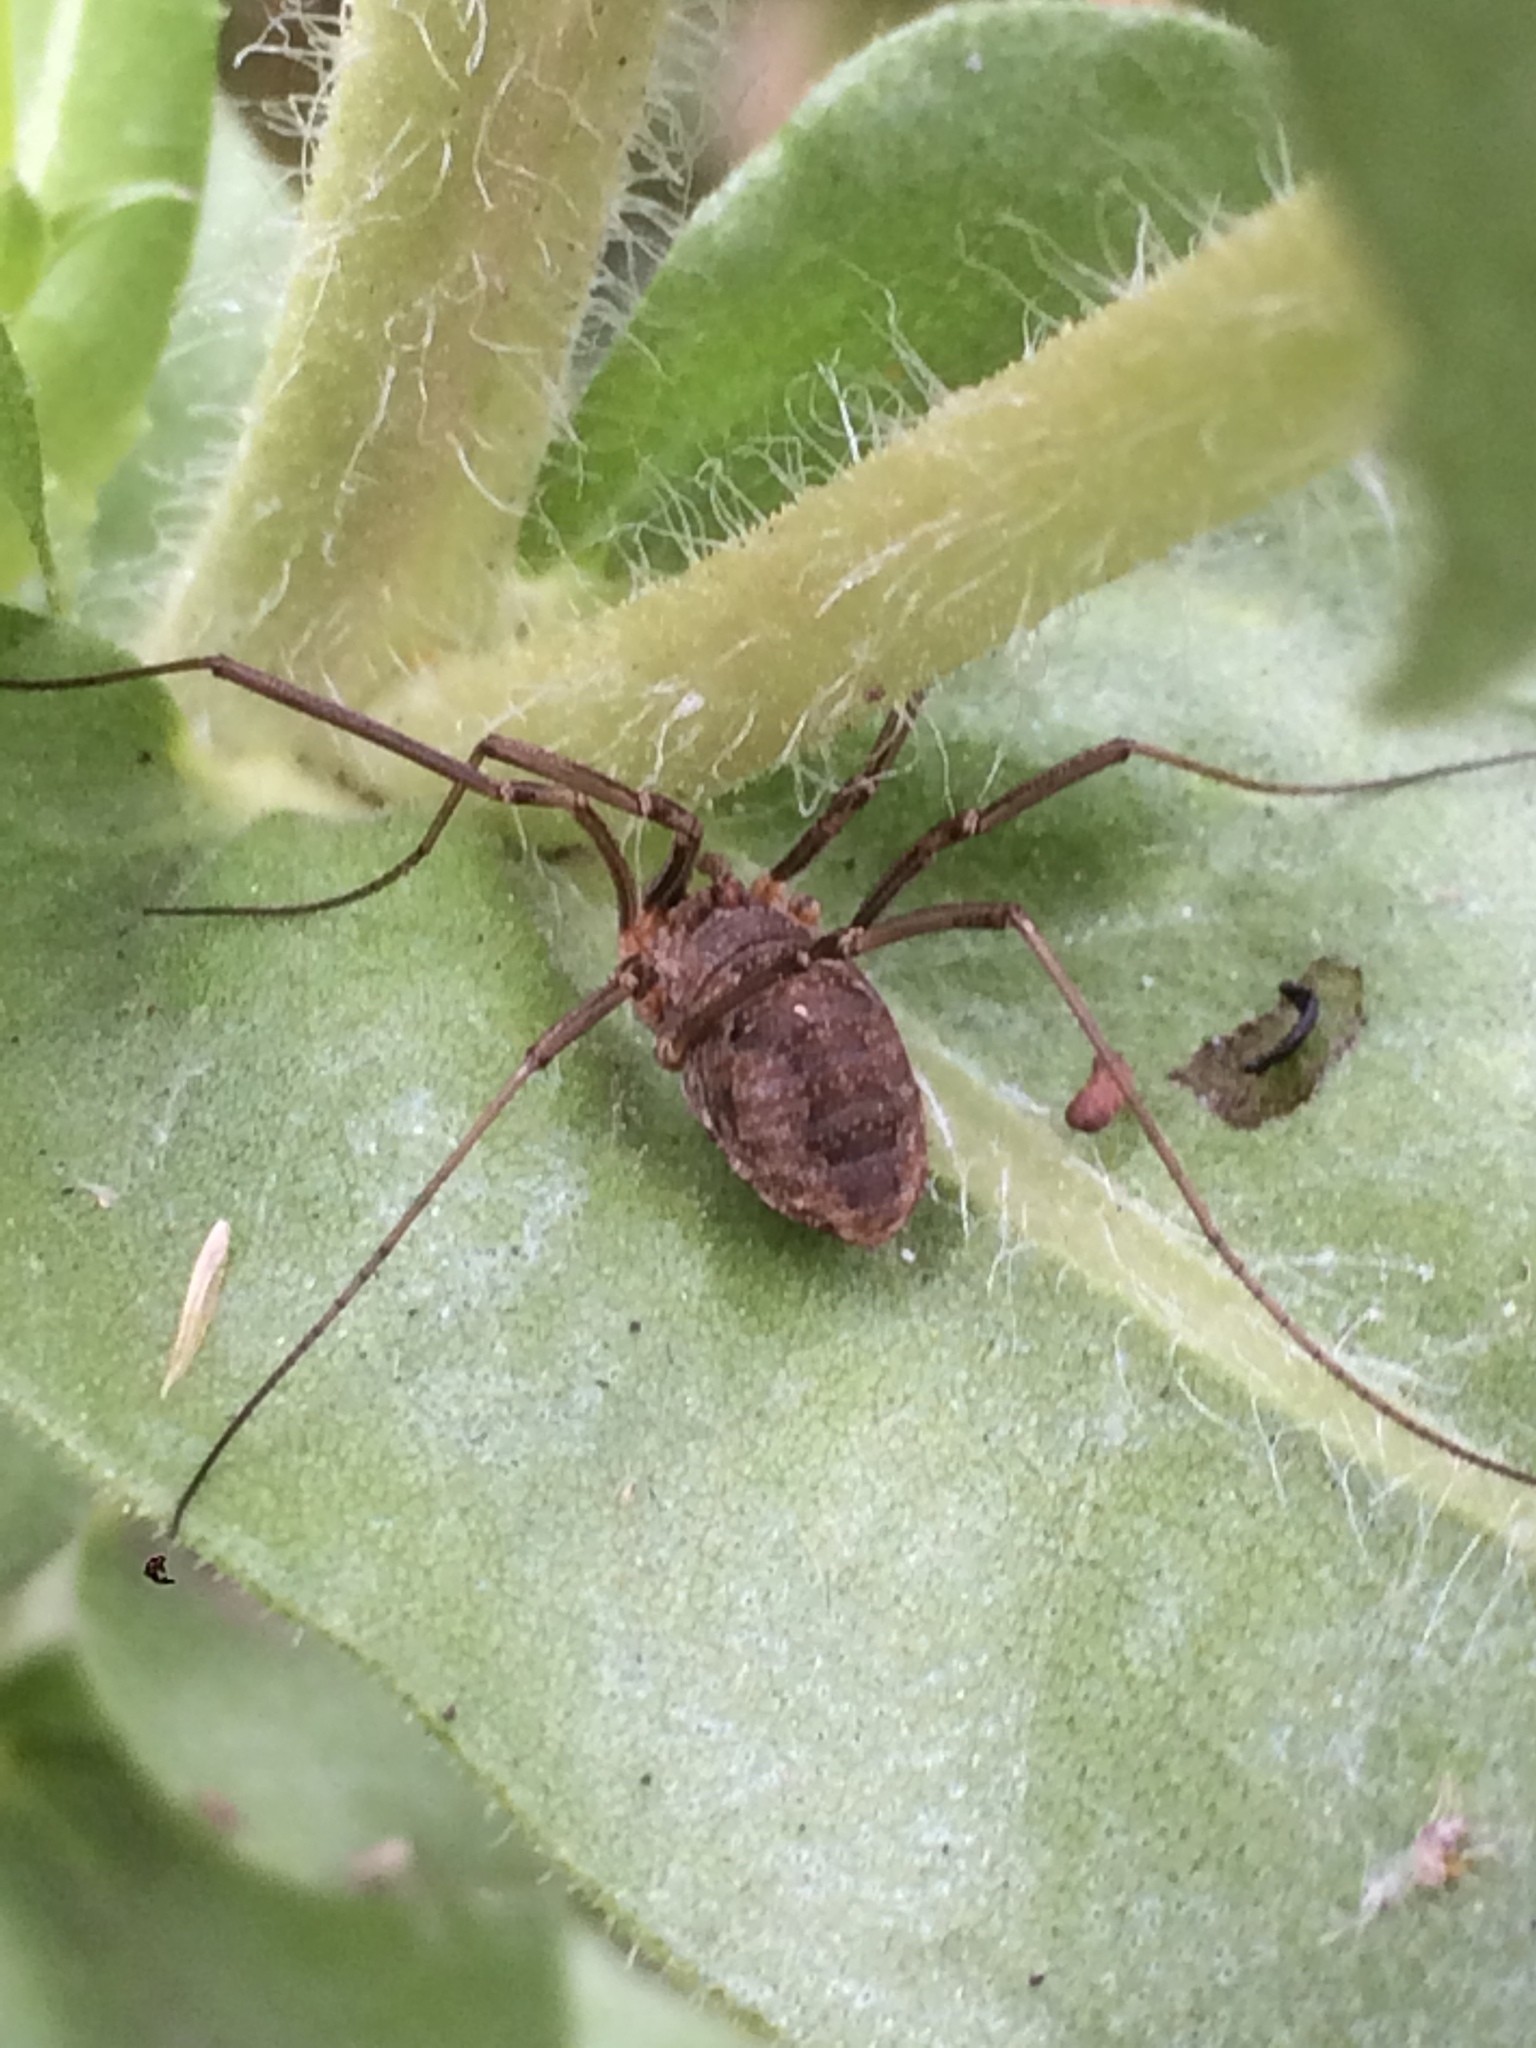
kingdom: Animalia
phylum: Arthropoda
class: Arachnida
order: Opiliones
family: Phalangiidae
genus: Phalangium
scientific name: Phalangium opilio
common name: Daddy longleg
